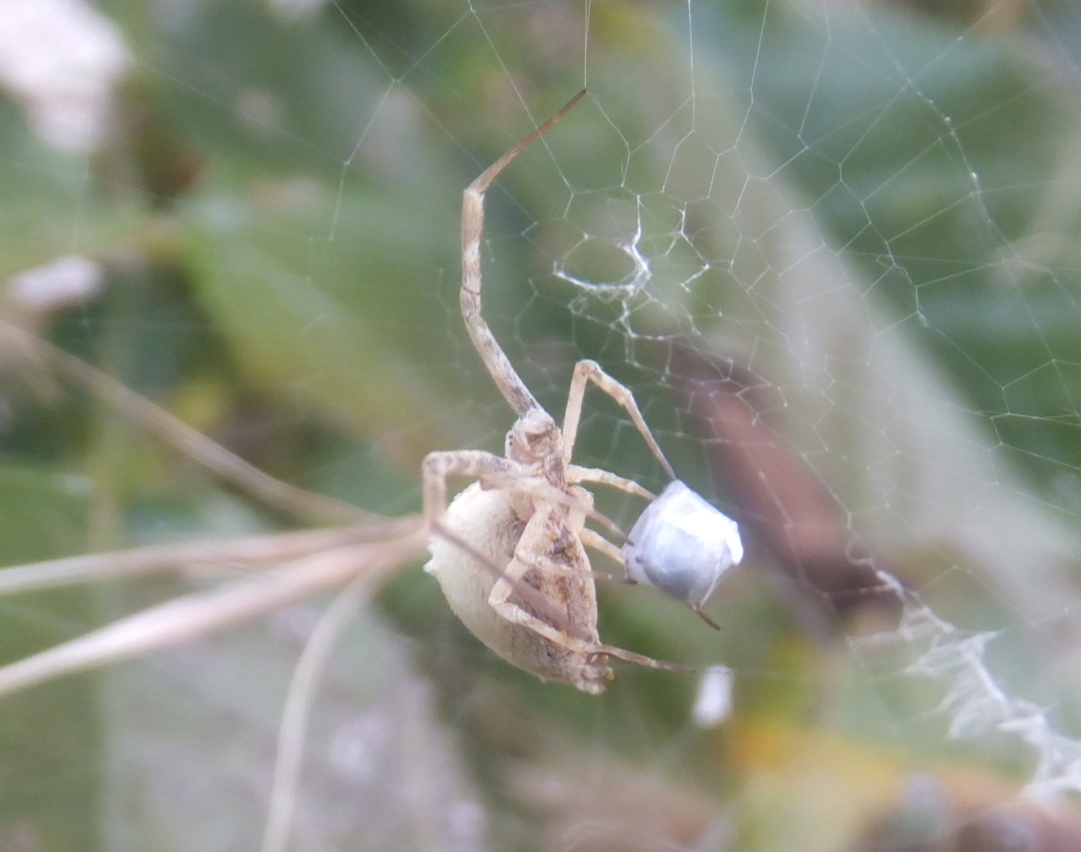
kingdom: Animalia
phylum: Arthropoda
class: Arachnida
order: Araneae
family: Uloboridae
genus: Uloborus
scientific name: Uloborus walckenaerius
